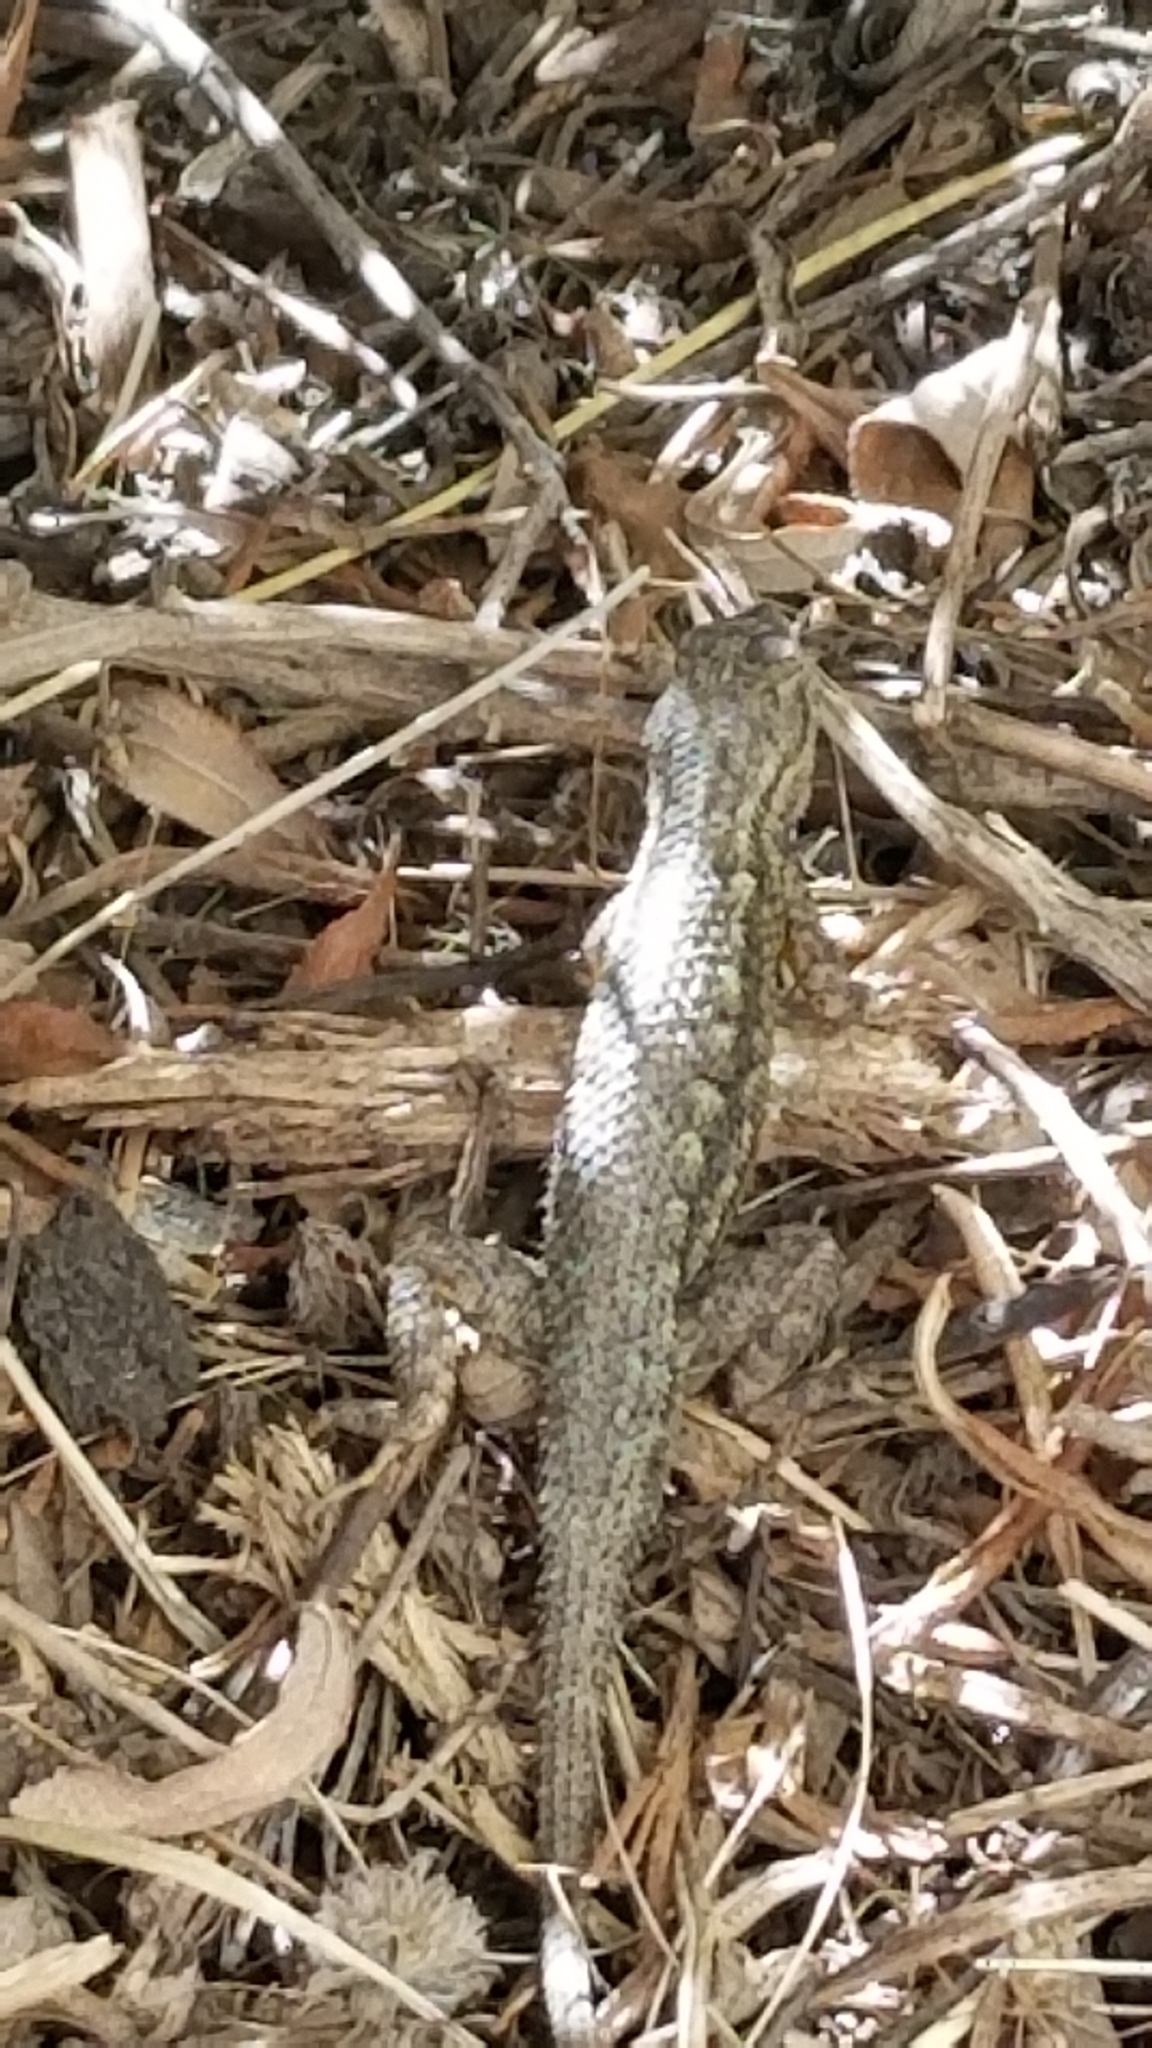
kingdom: Animalia
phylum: Chordata
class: Squamata
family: Phrynosomatidae
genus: Sceloporus
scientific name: Sceloporus occidentalis
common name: Western fence lizard
